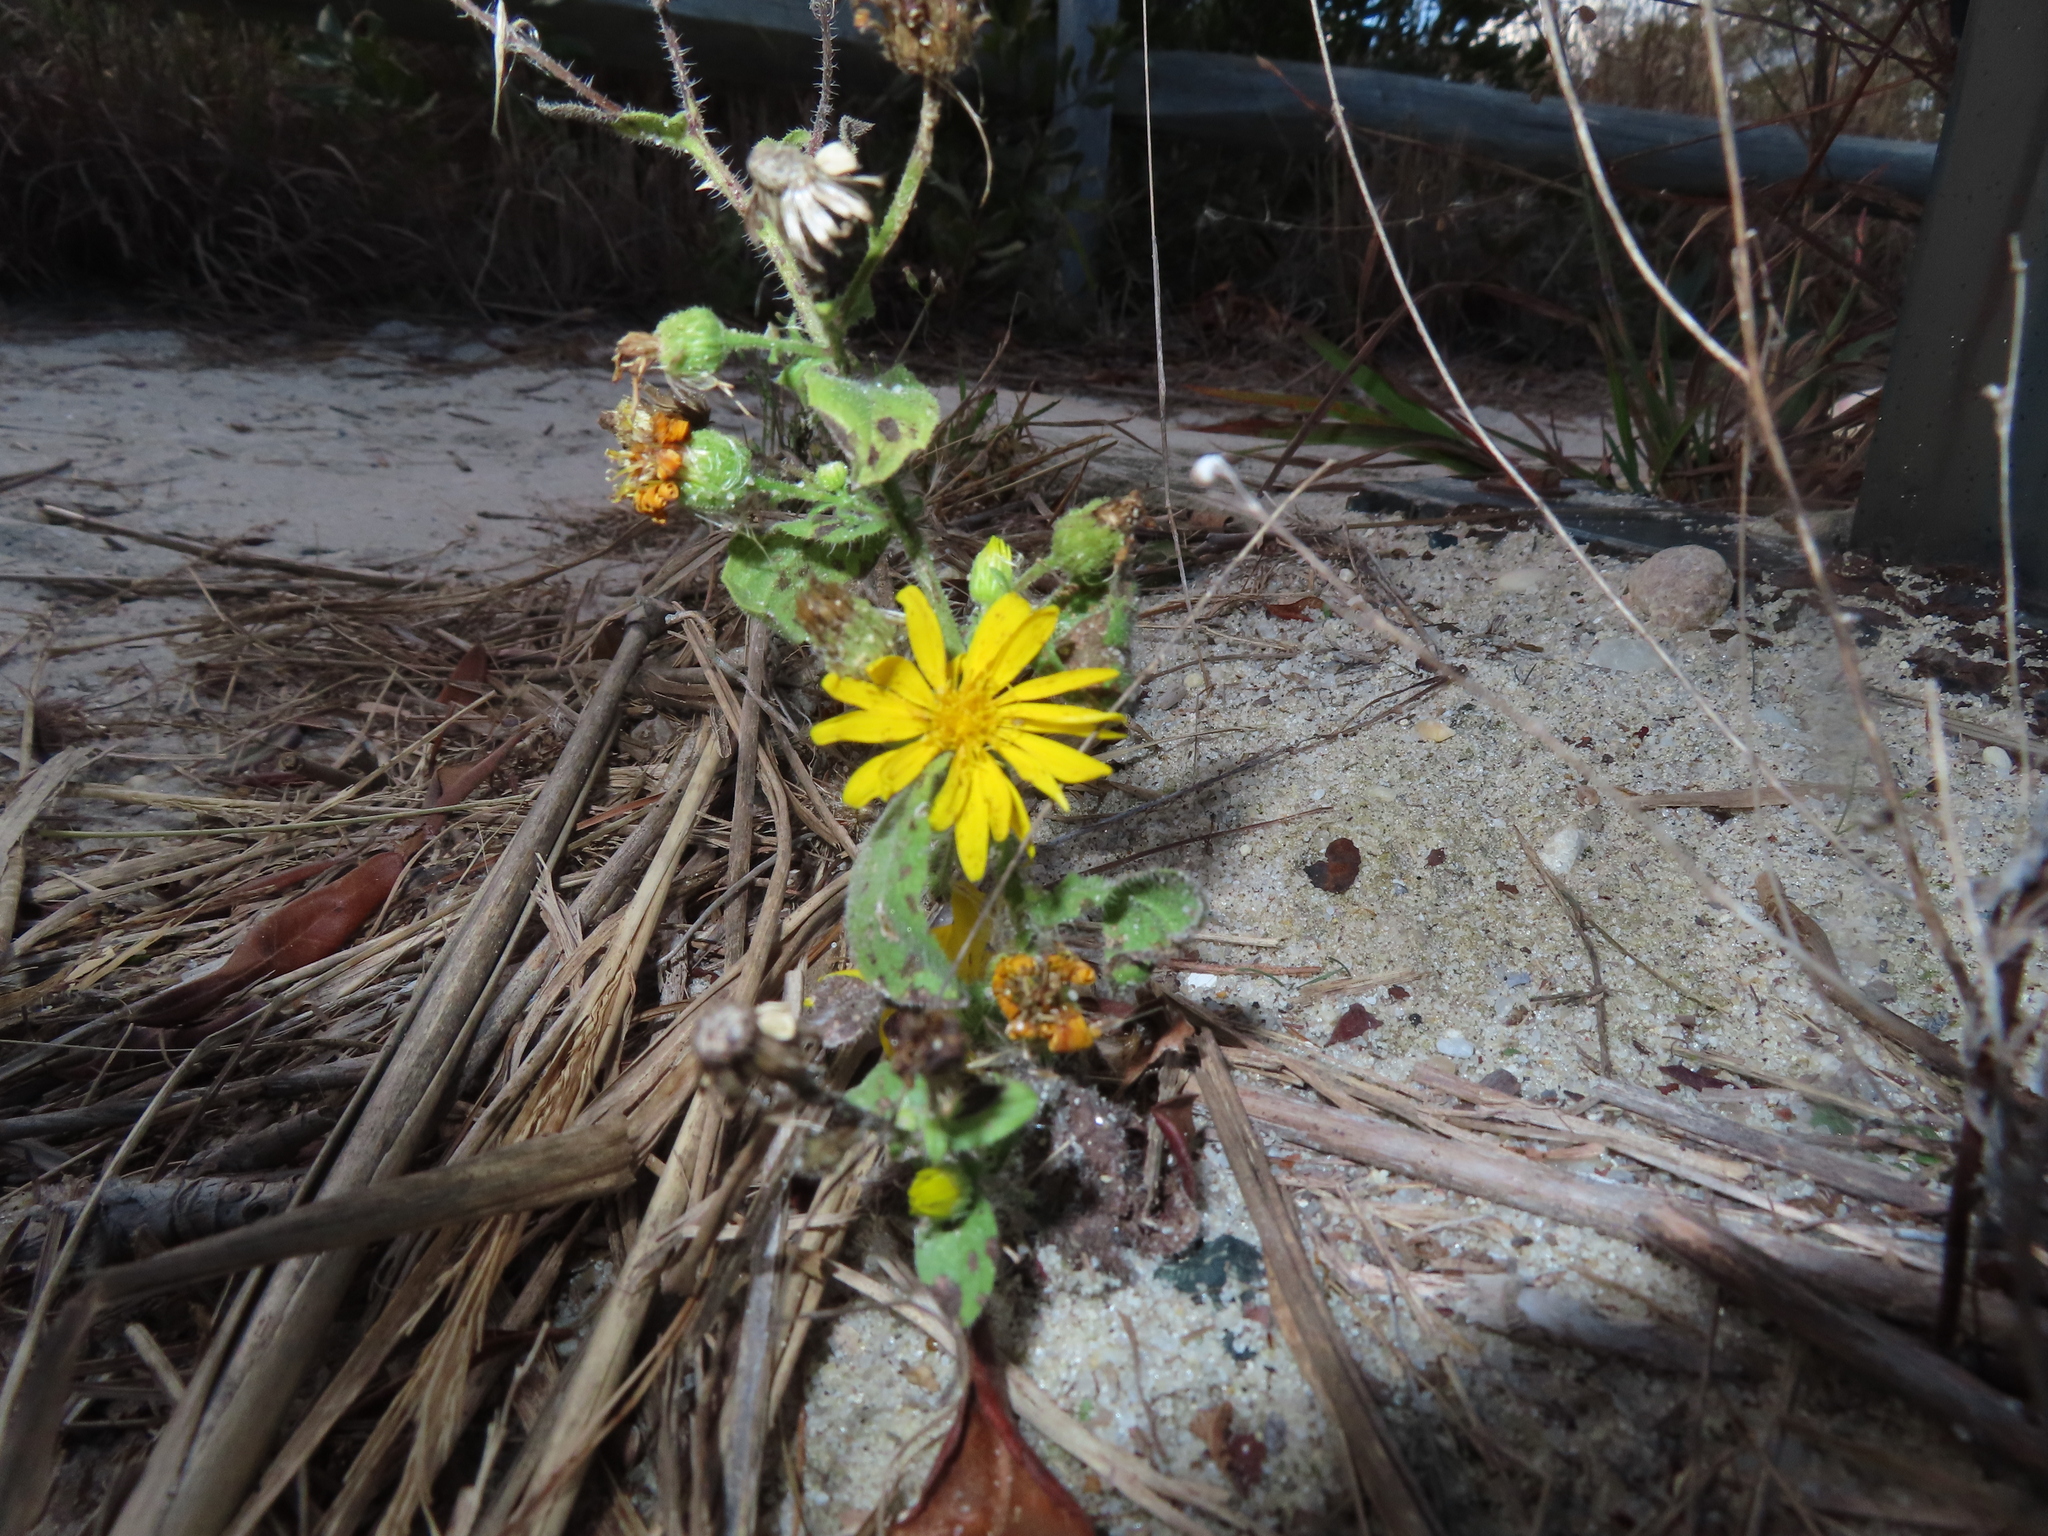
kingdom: Plantae
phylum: Tracheophyta
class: Magnoliopsida
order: Asterales
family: Asteraceae
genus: Heterotheca
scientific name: Heterotheca subaxillaris
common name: Camphorweed
